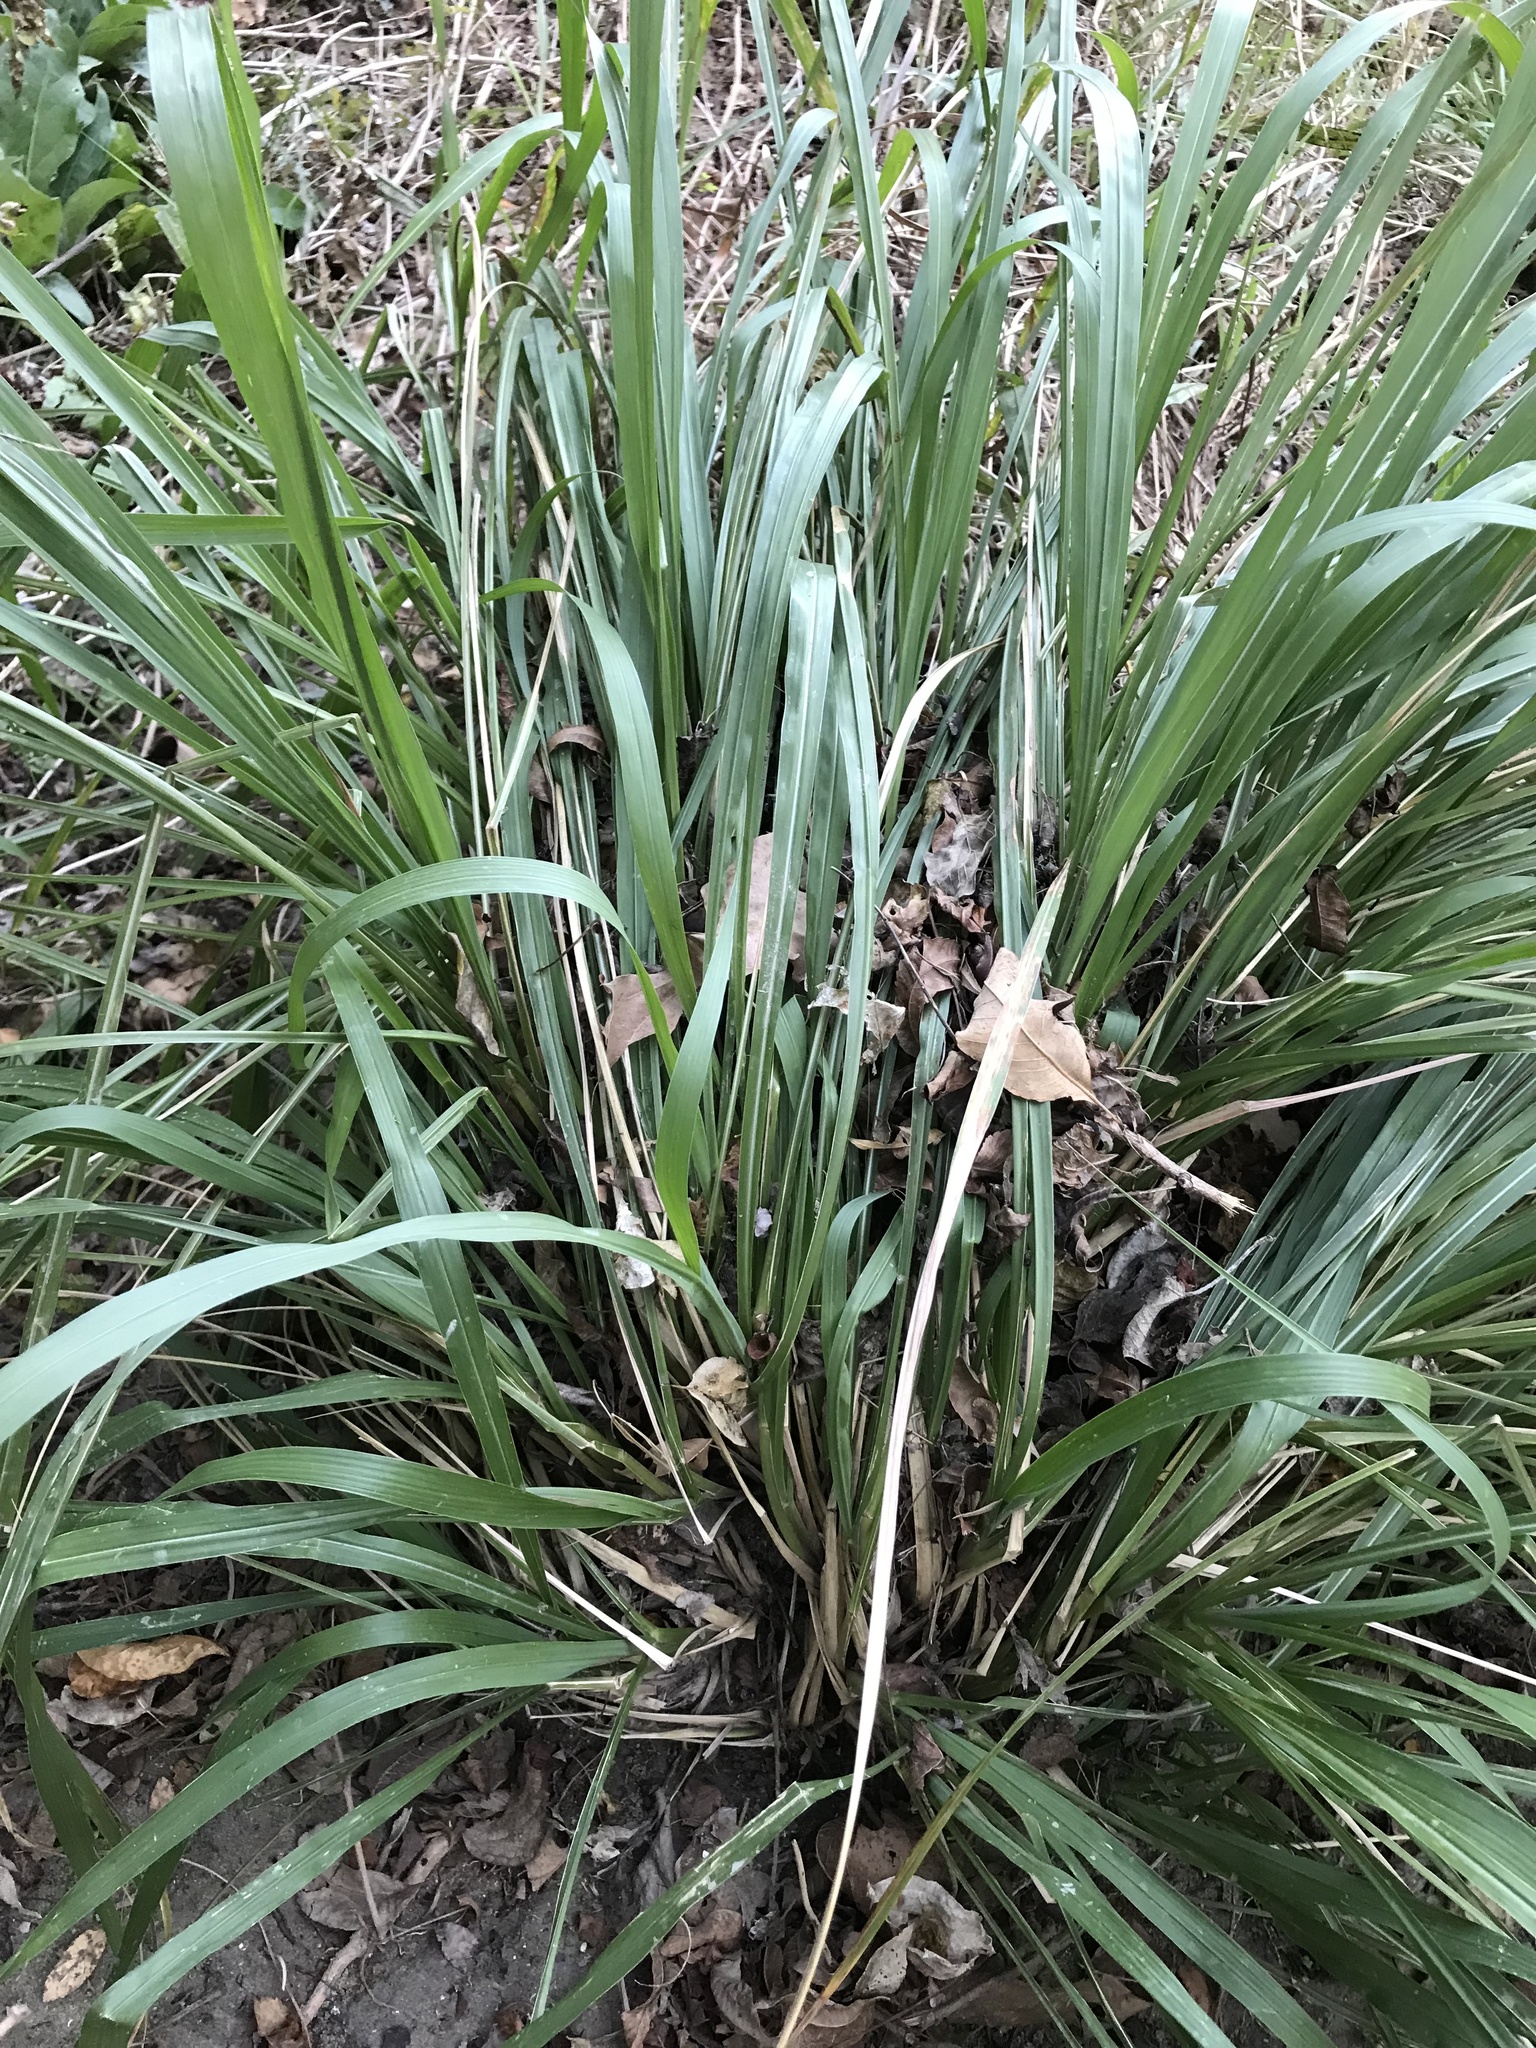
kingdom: Plantae
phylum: Tracheophyta
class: Liliopsida
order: Poales
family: Poaceae
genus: Tripsacum
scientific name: Tripsacum dactyloides
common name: Buffalo-grass
